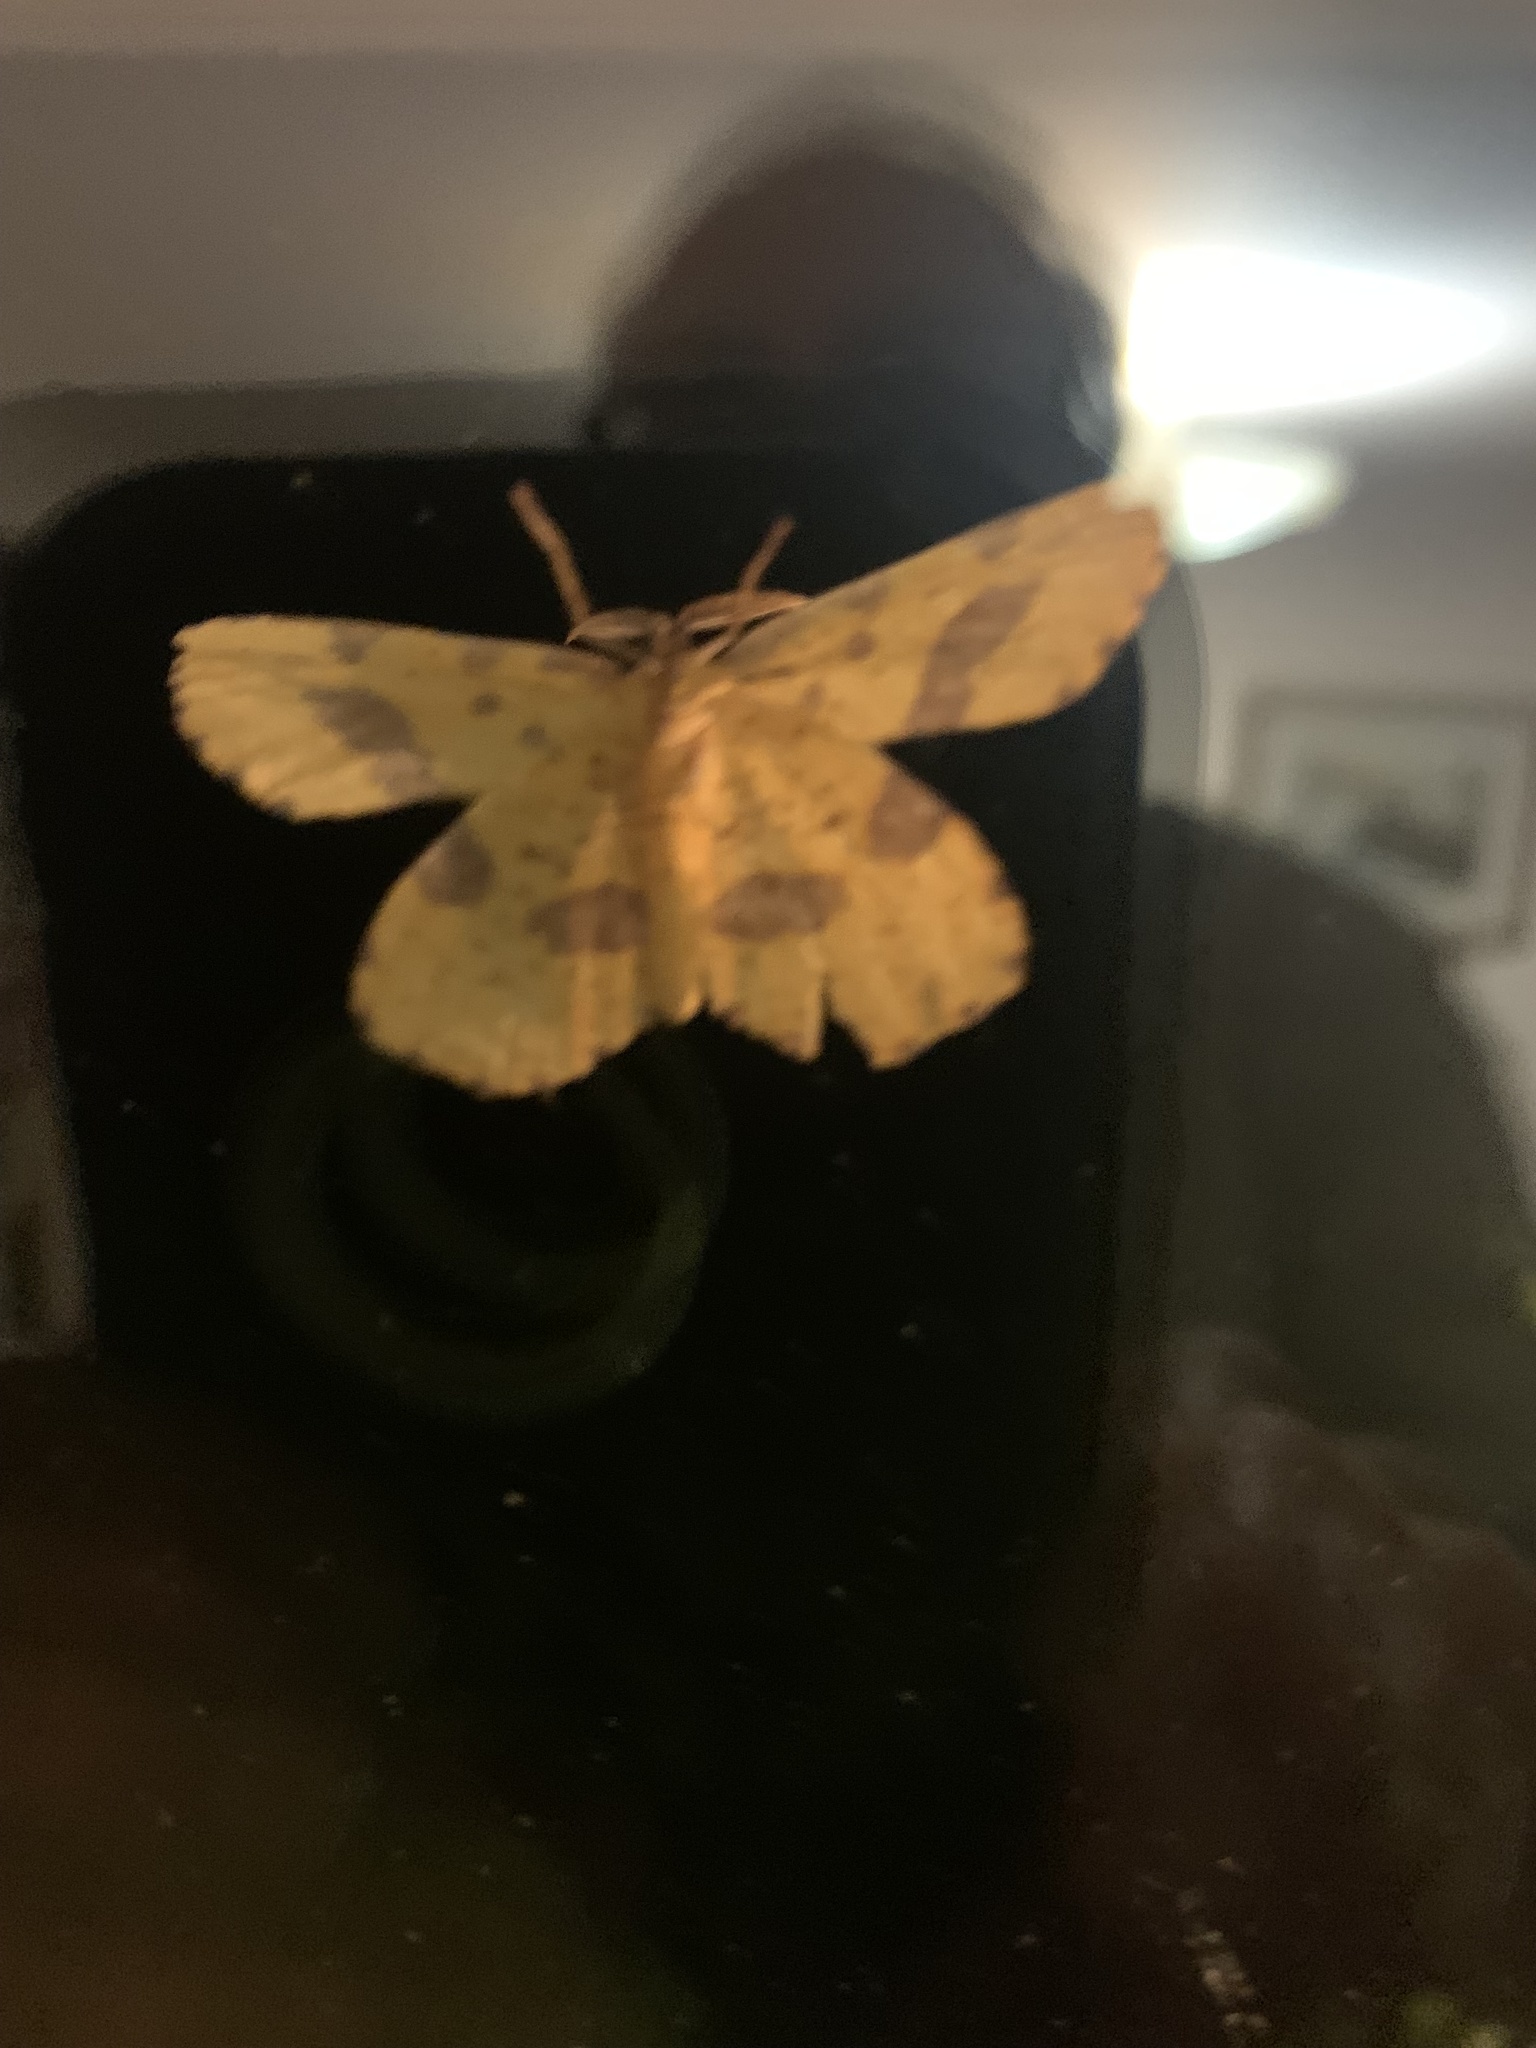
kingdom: Animalia
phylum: Arthropoda
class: Insecta
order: Lepidoptera
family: Geometridae
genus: Xanthotype
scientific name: Xanthotype
